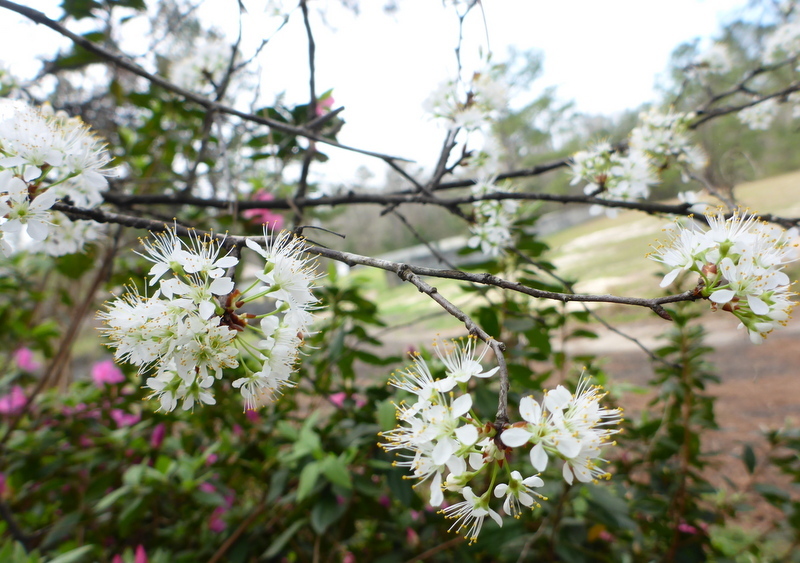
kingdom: Plantae
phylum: Tracheophyta
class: Magnoliopsida
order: Rosales
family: Rosaceae
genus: Prunus
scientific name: Prunus angustifolia
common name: Cherokee plum
